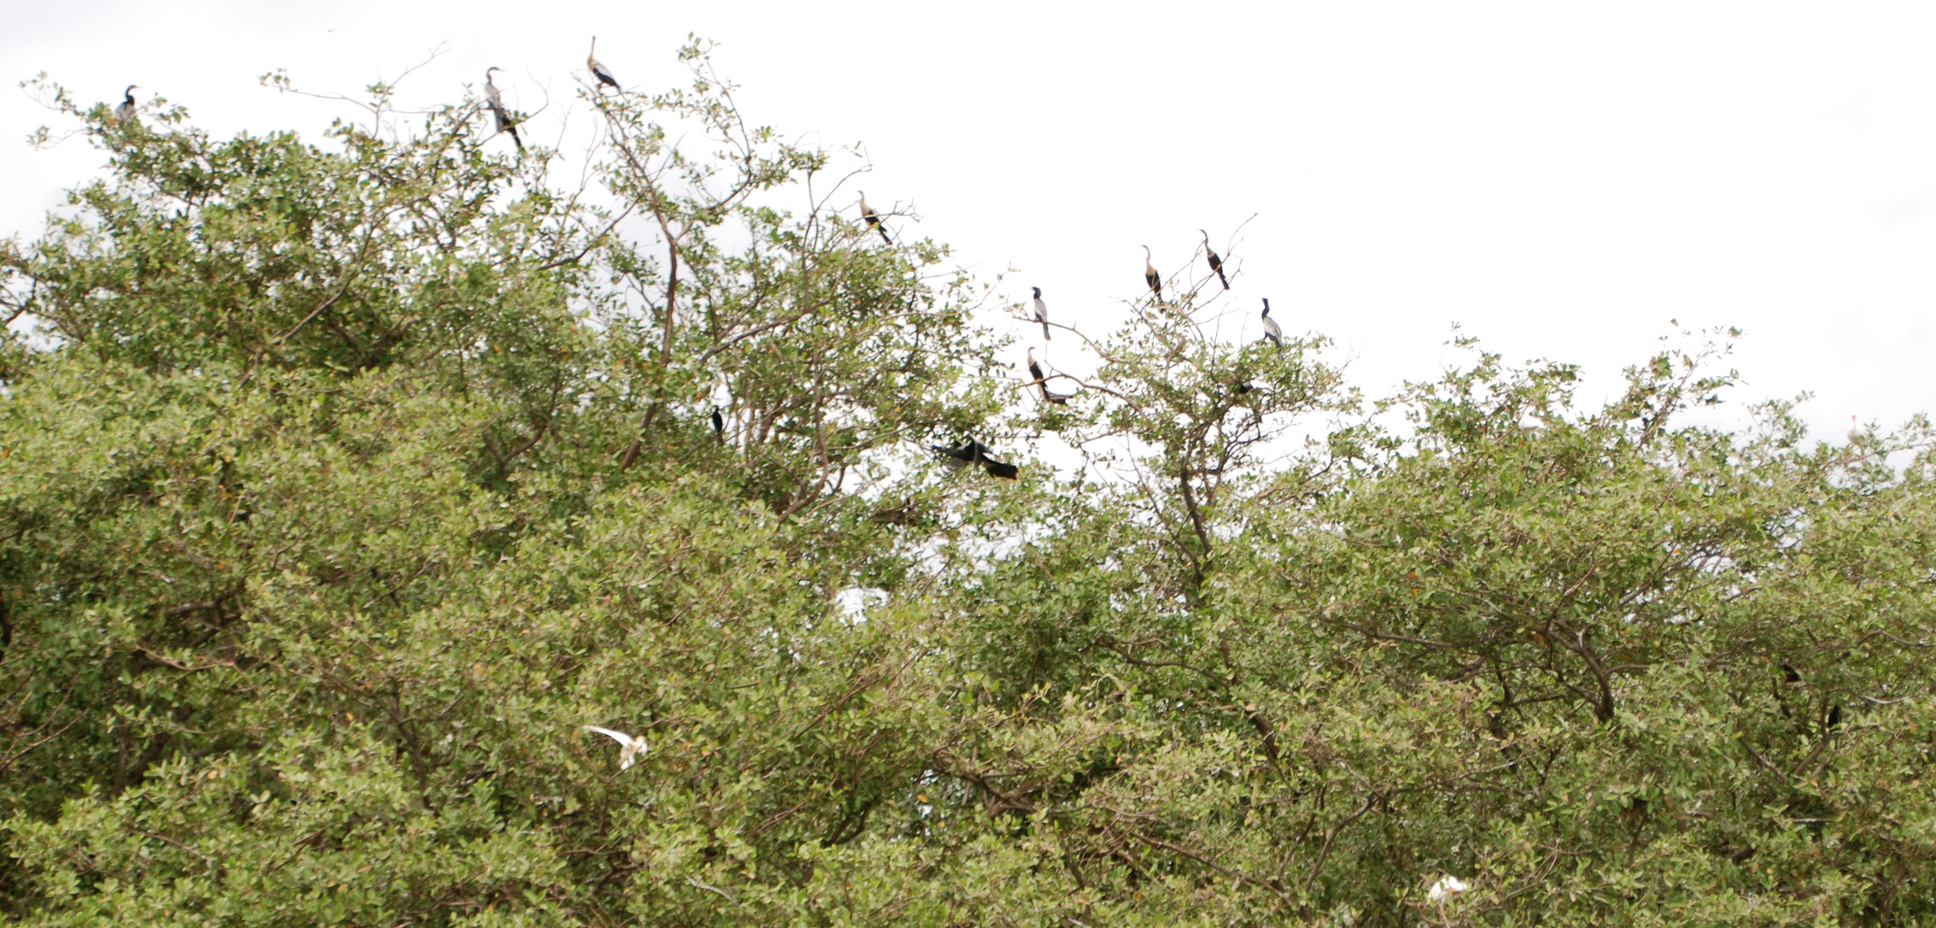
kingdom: Animalia
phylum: Chordata
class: Aves
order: Suliformes
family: Anhingidae
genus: Anhinga
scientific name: Anhinga anhinga
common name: Anhinga
